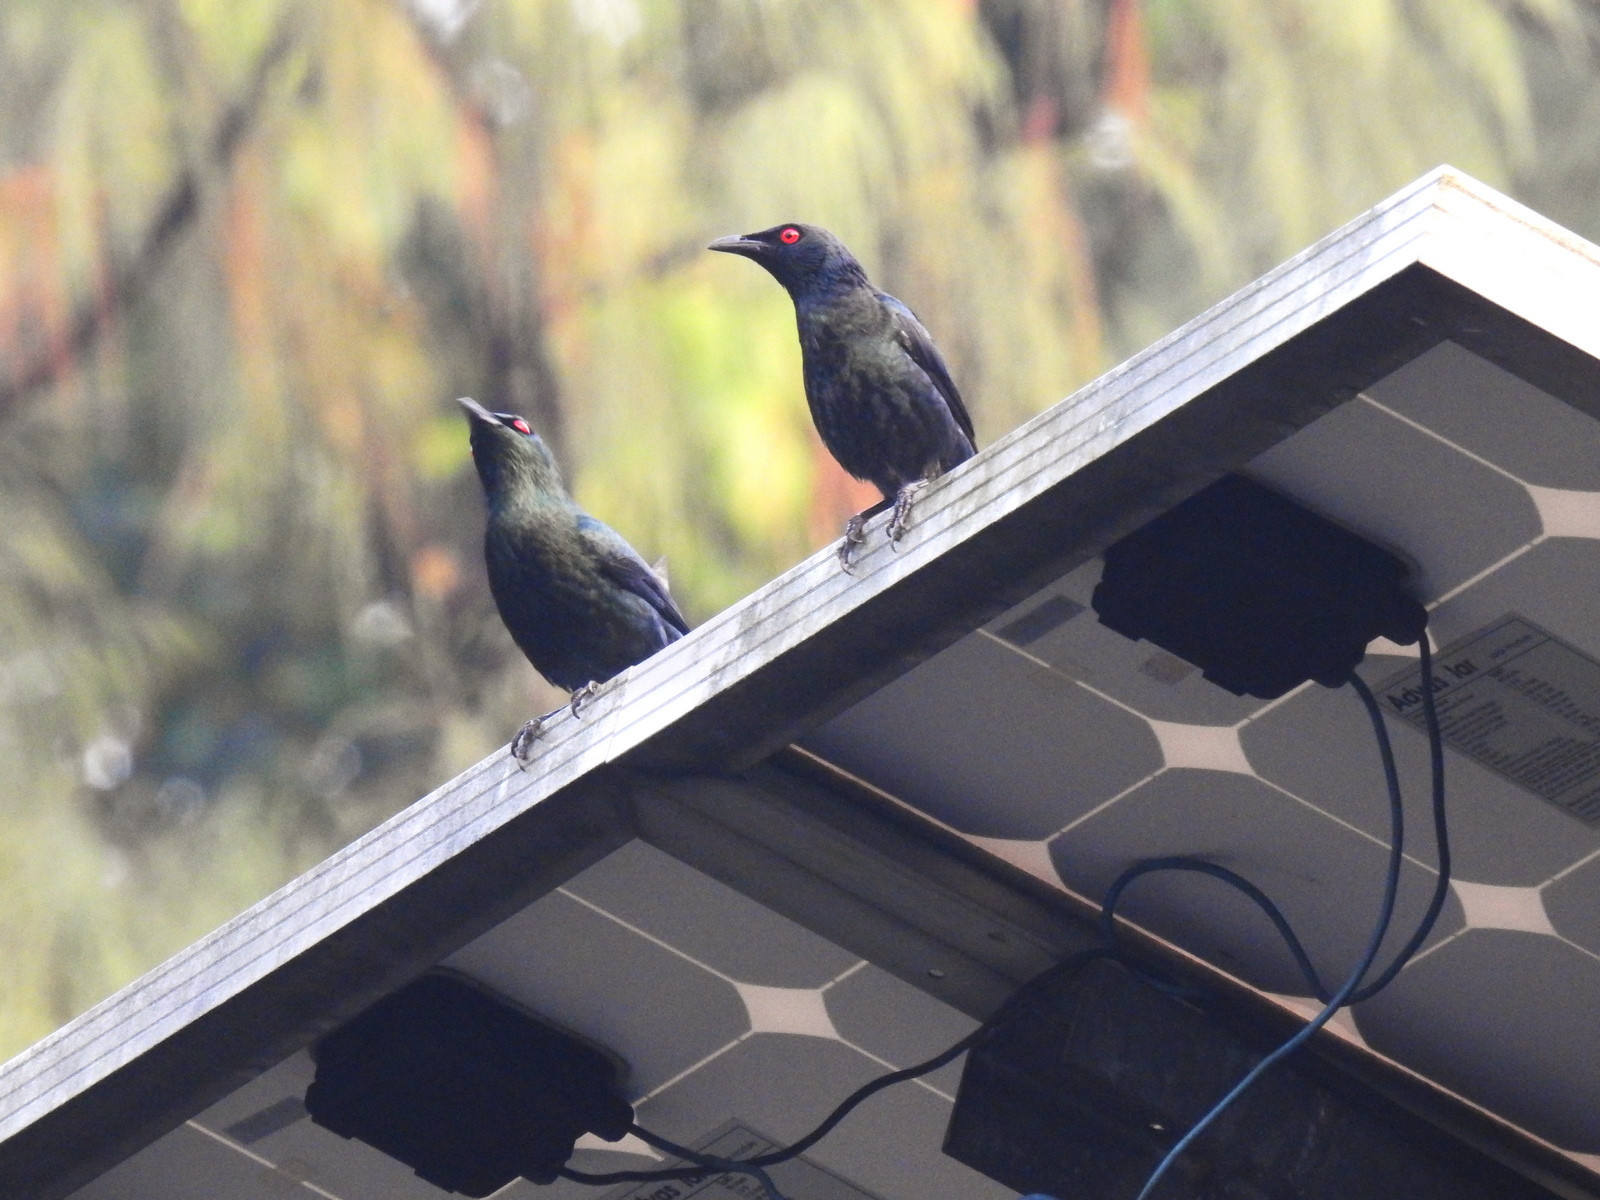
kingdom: Animalia
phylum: Chordata
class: Aves
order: Passeriformes
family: Sturnidae
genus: Aplonis
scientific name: Aplonis panayensis
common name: Asian glossy starling
